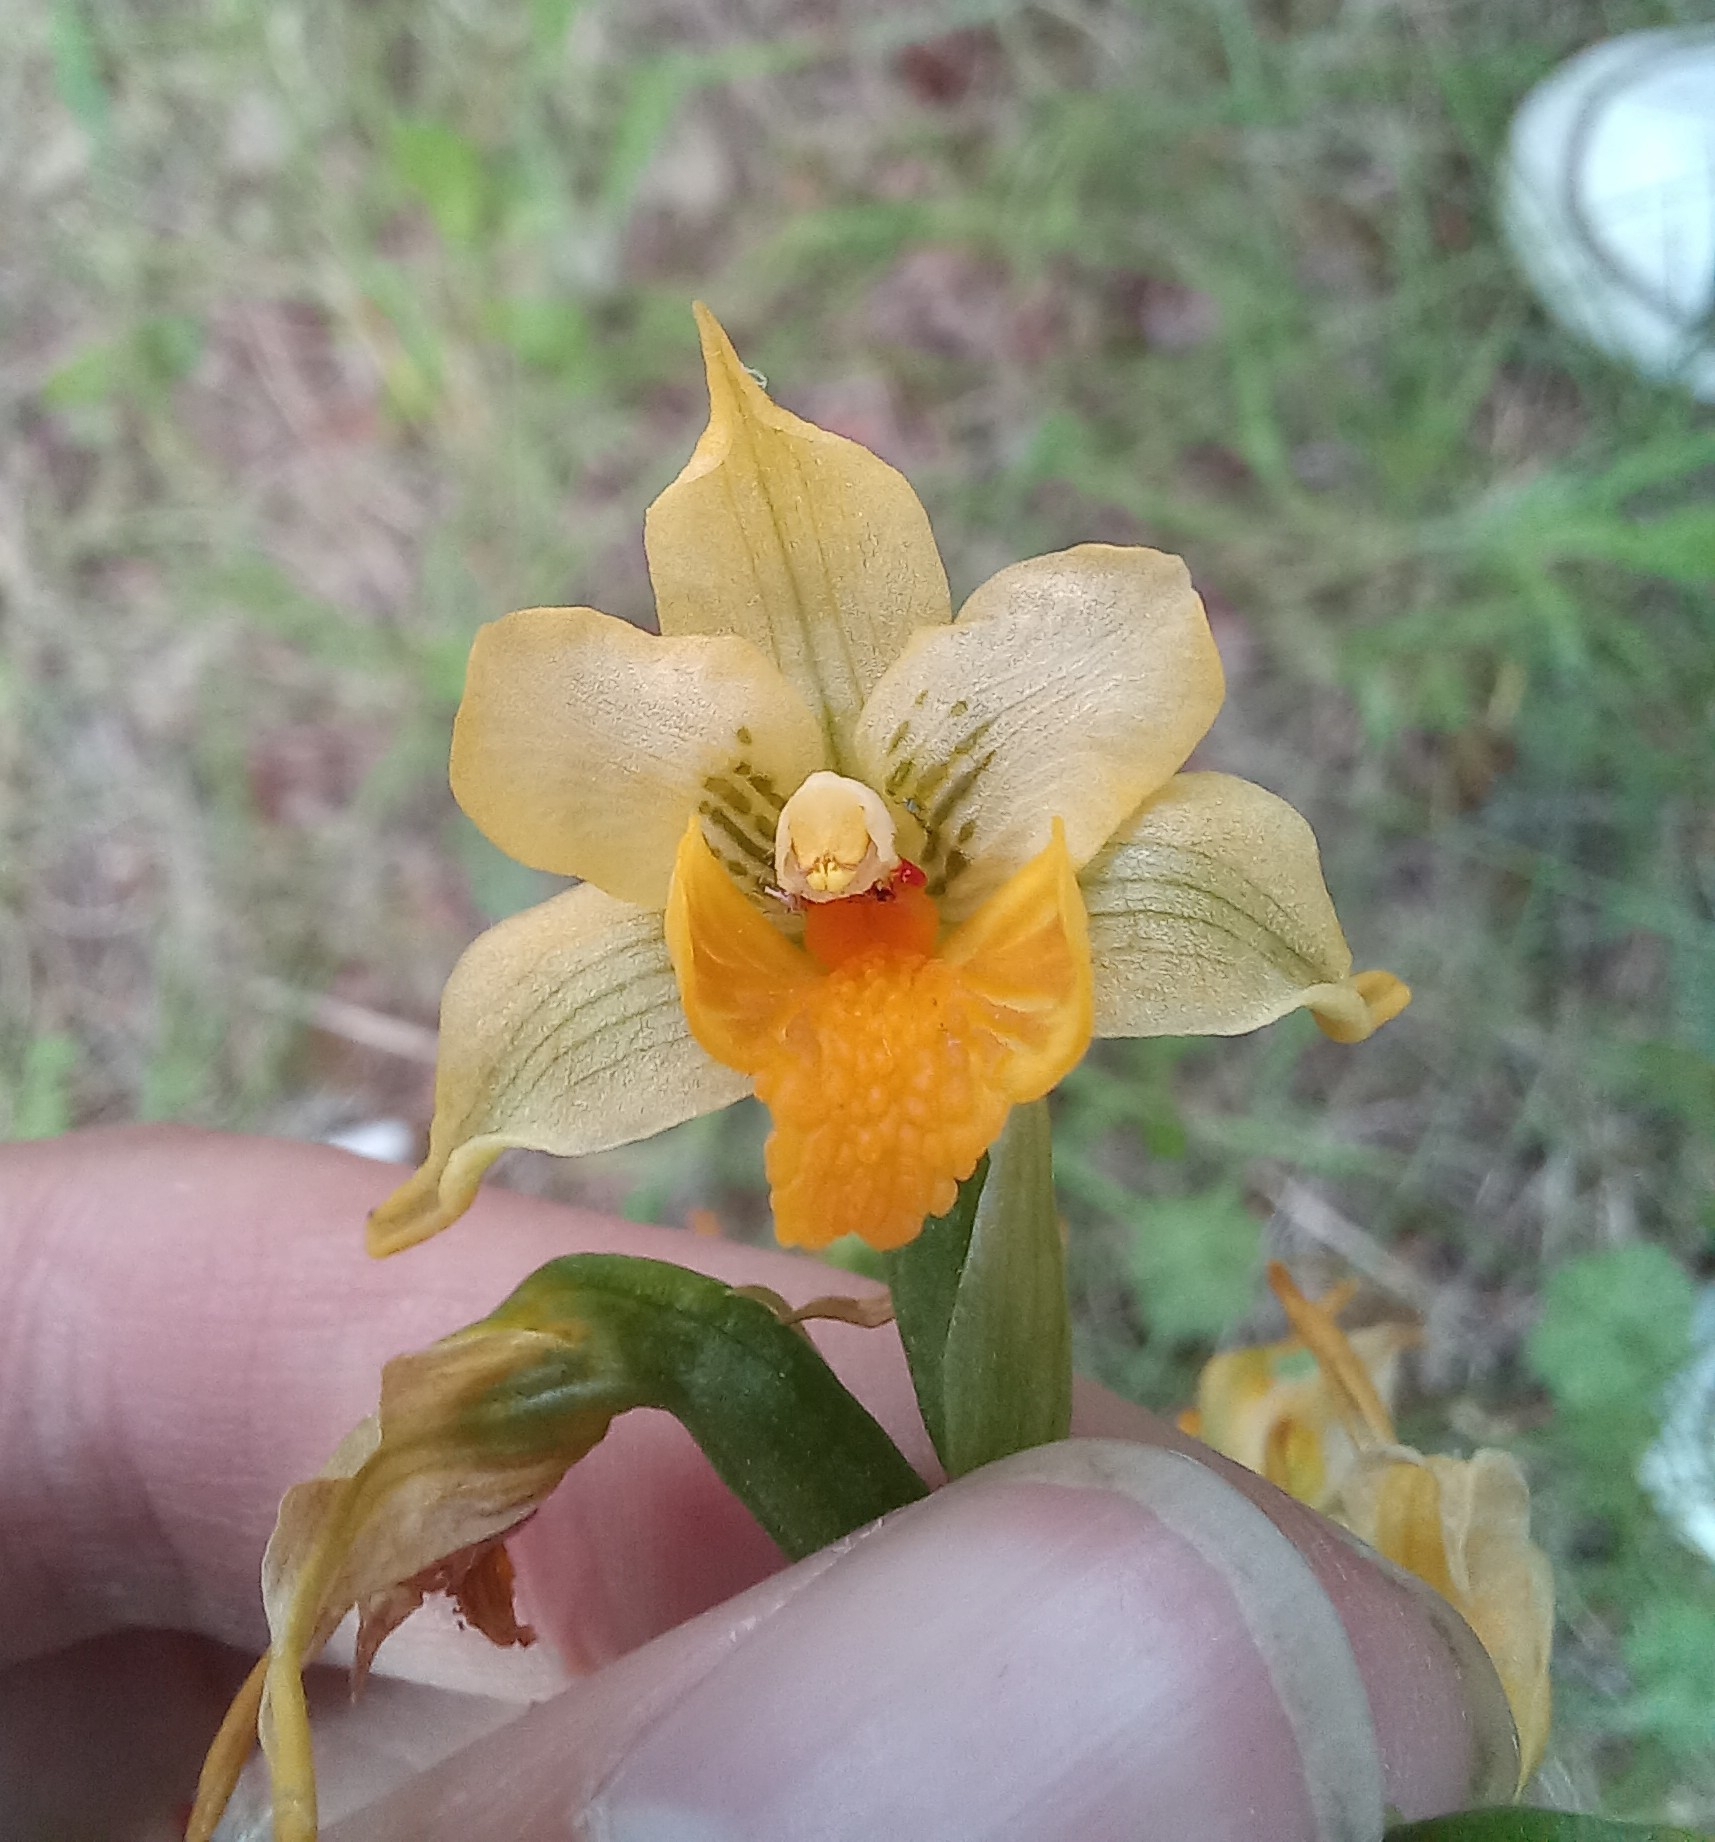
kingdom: Plantae
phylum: Tracheophyta
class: Liliopsida
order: Asparagales
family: Orchidaceae
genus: Gavilea
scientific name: Gavilea odoratissima
